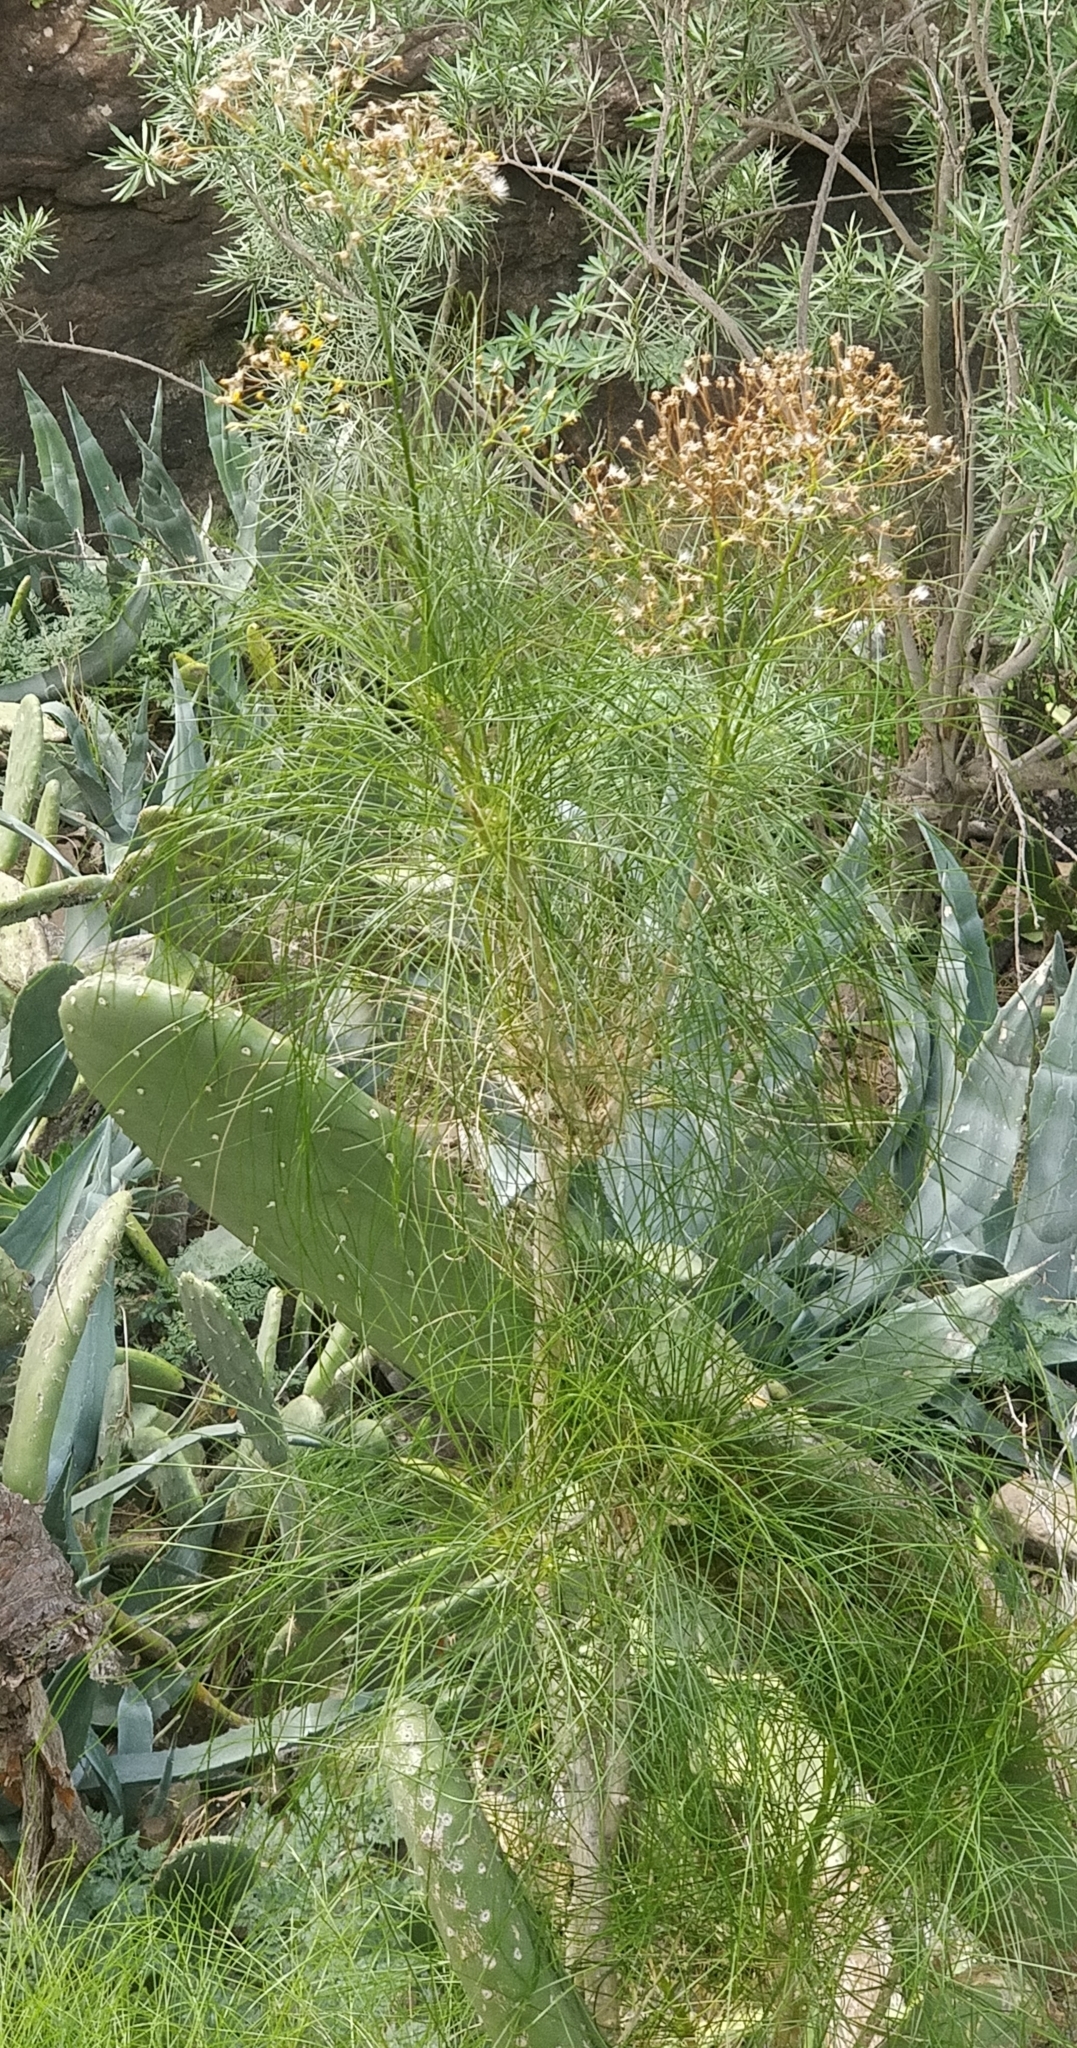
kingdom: Plantae
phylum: Tracheophyta
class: Magnoliopsida
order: Asterales
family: Asteraceae
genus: Sonchus
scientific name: Sonchus capillaris
